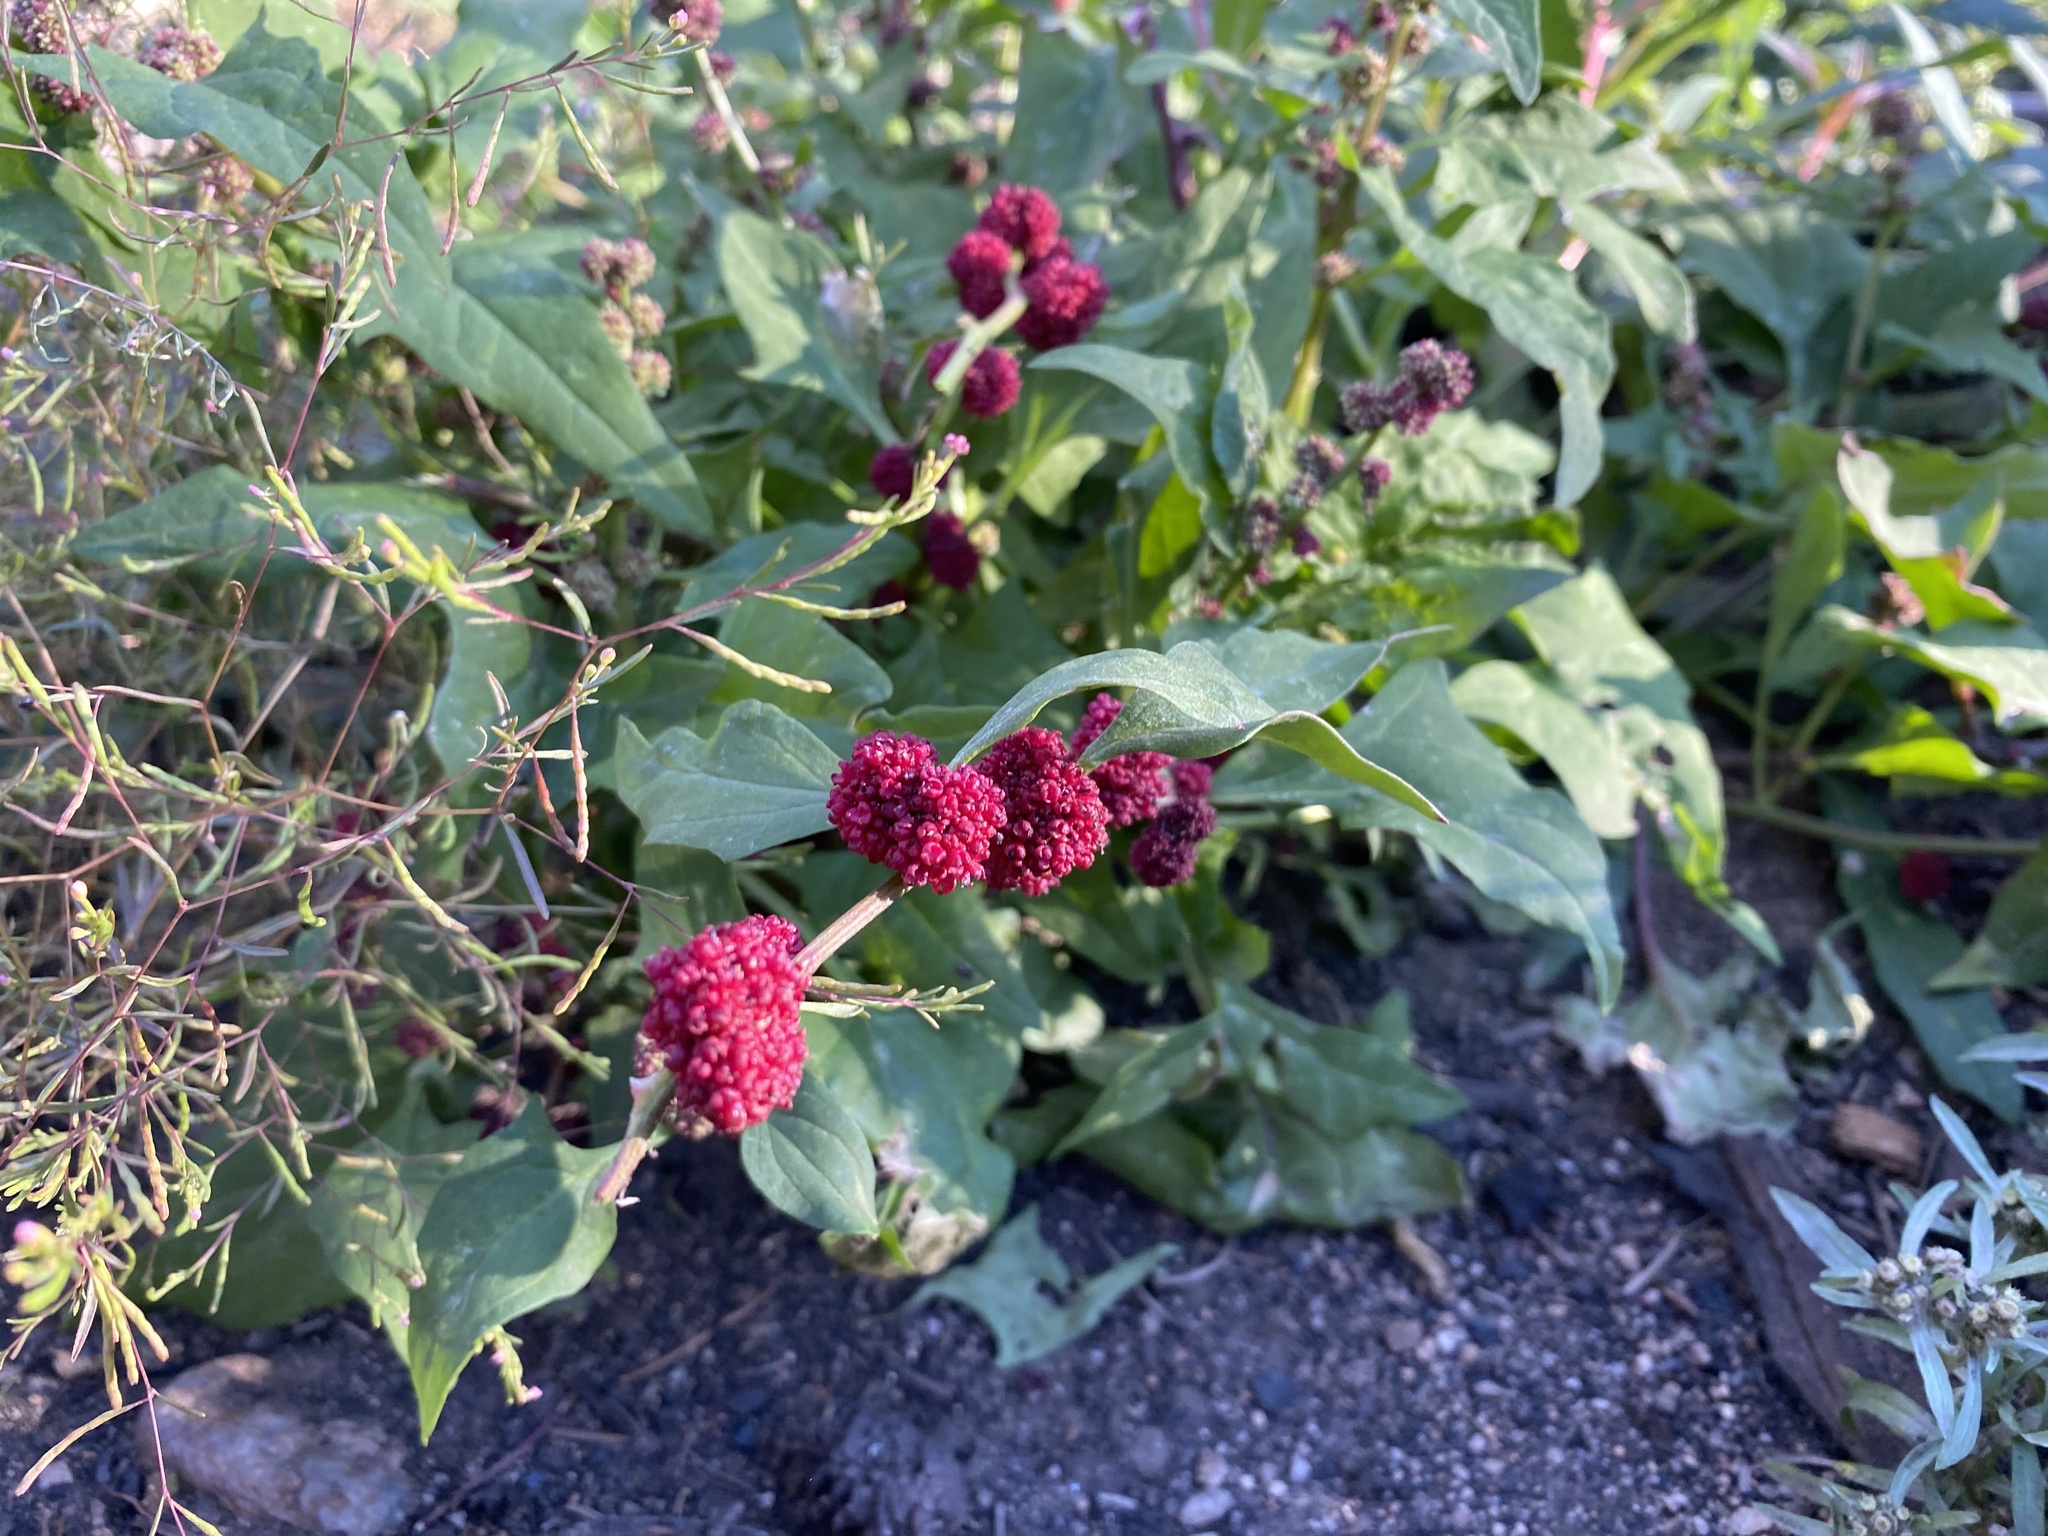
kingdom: Plantae
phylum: Tracheophyta
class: Magnoliopsida
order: Caryophyllales
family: Amaranthaceae
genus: Blitum
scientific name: Blitum capitatum
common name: Strawberry-blight
